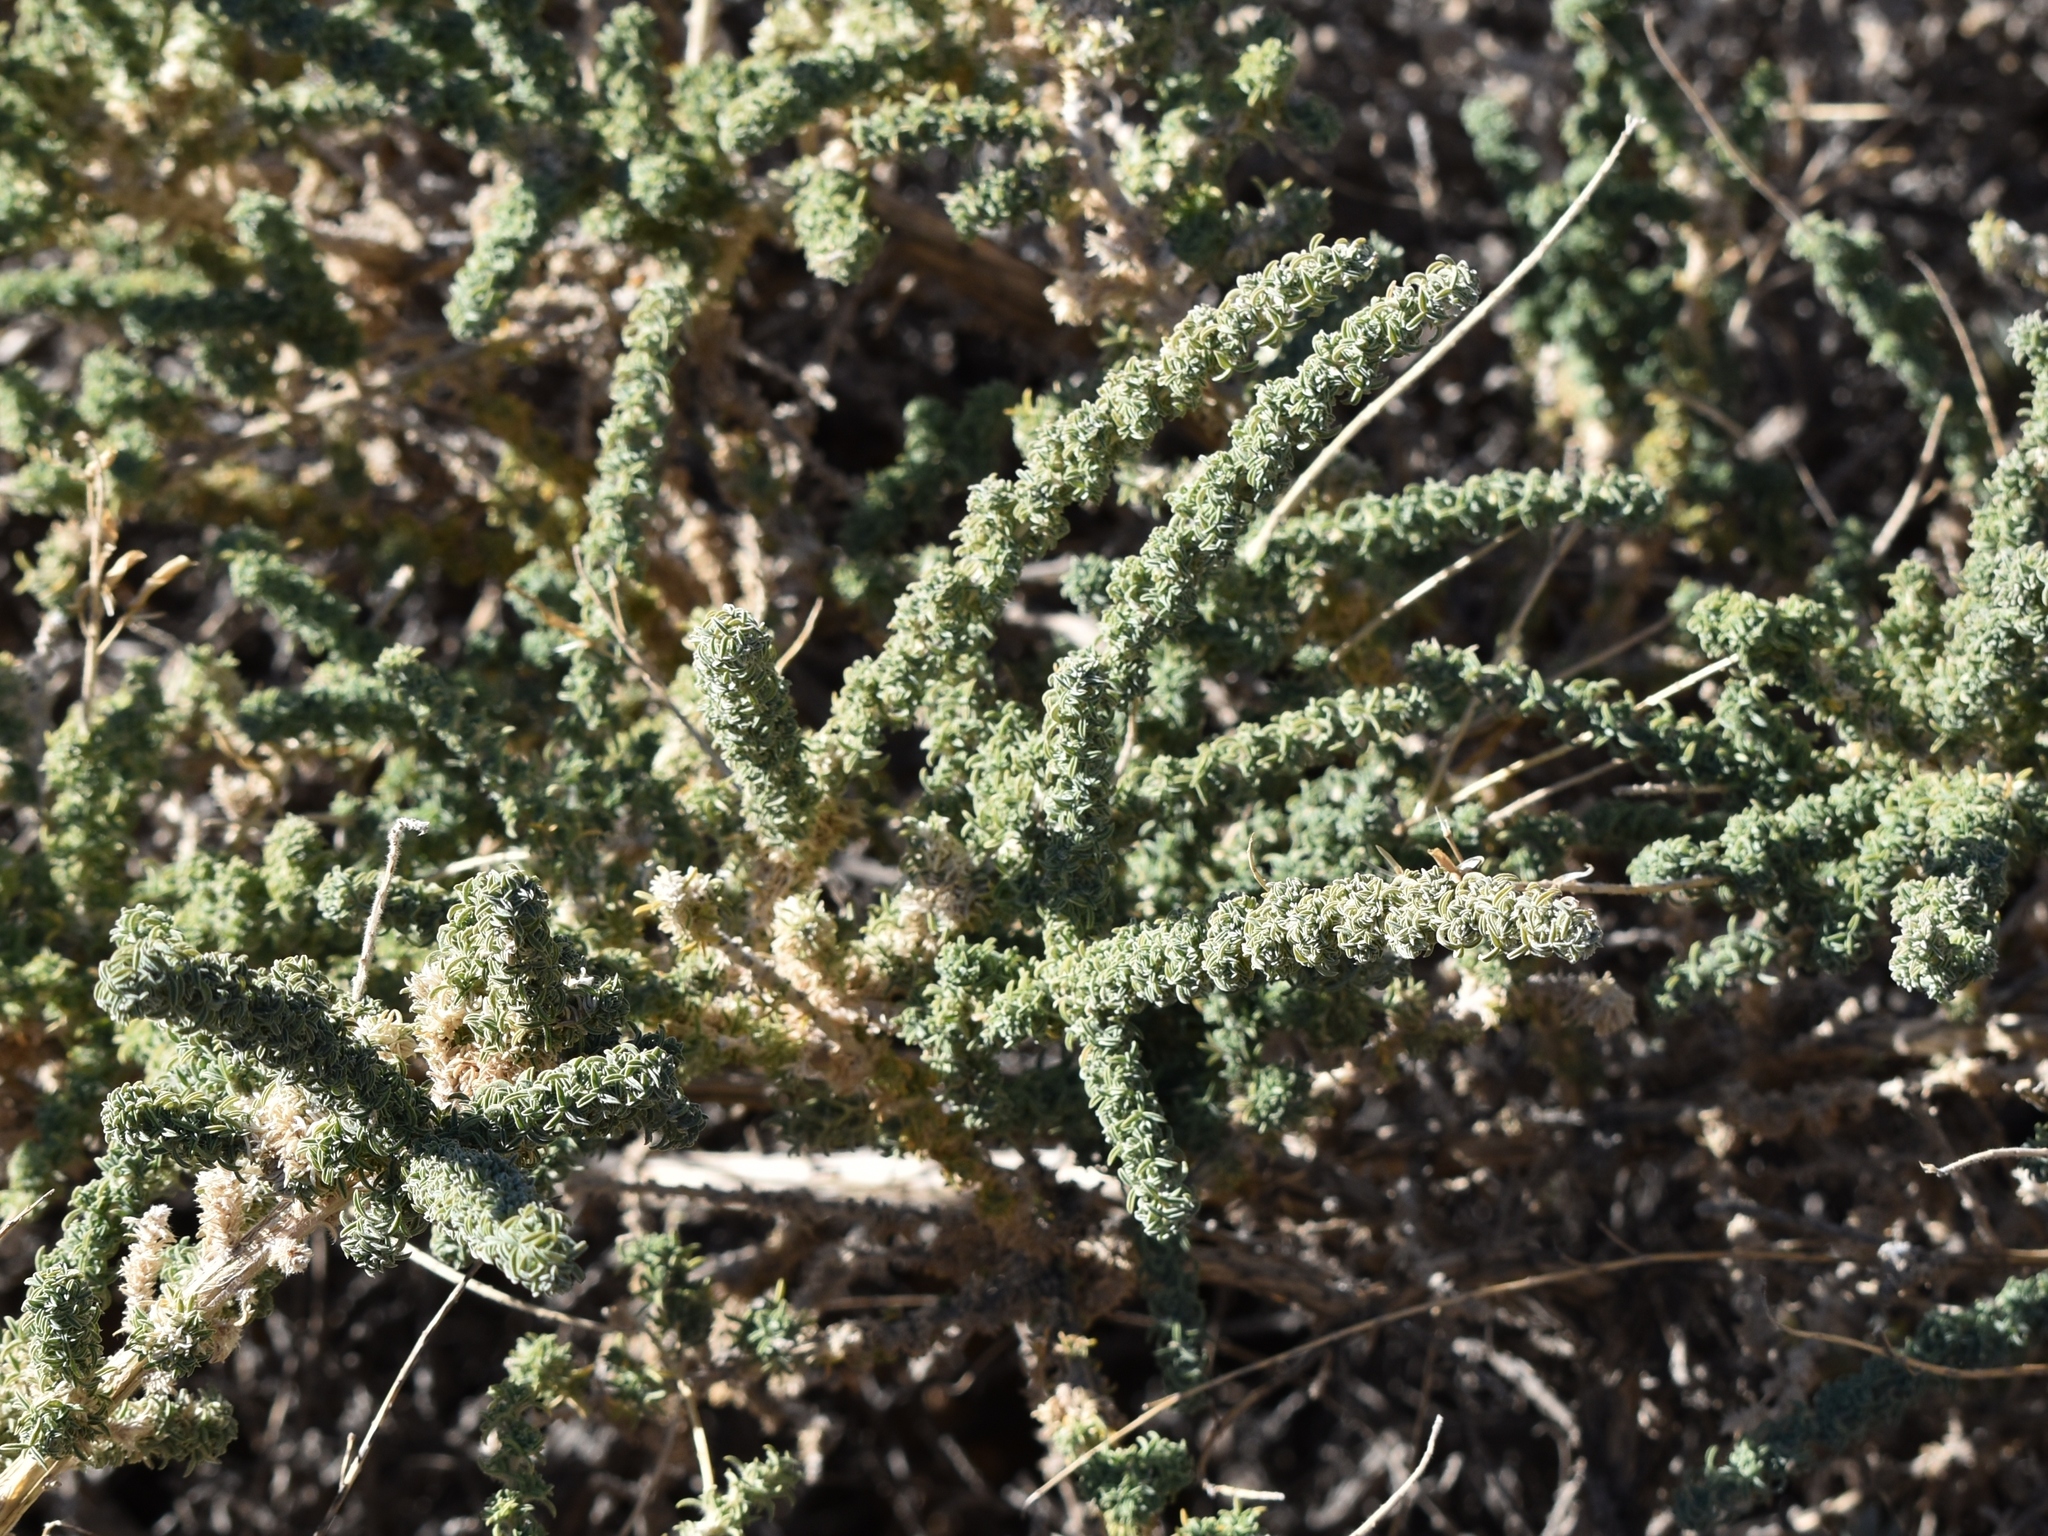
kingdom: Plantae
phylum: Tracheophyta
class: Magnoliopsida
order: Fabales
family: Fabaceae
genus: Adenocarpus
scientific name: Adenocarpus viscosus
